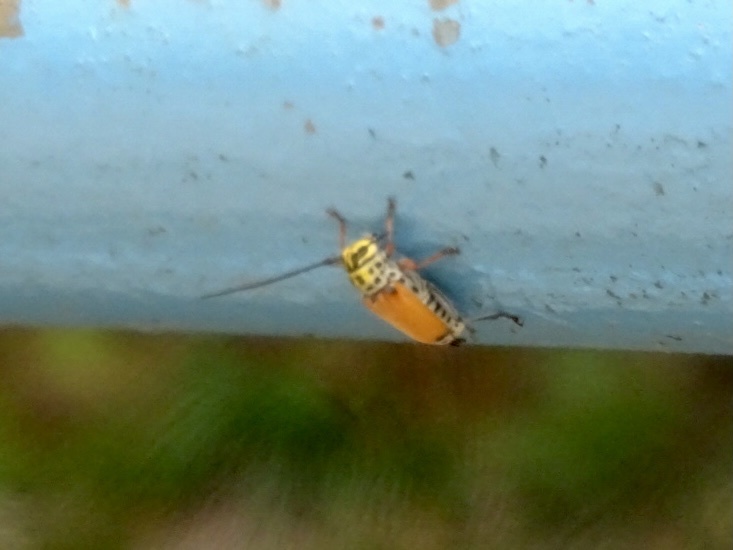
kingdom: Animalia
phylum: Arthropoda
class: Insecta
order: Coleoptera
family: Cerambycidae
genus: Glenea
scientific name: Glenea cantor
